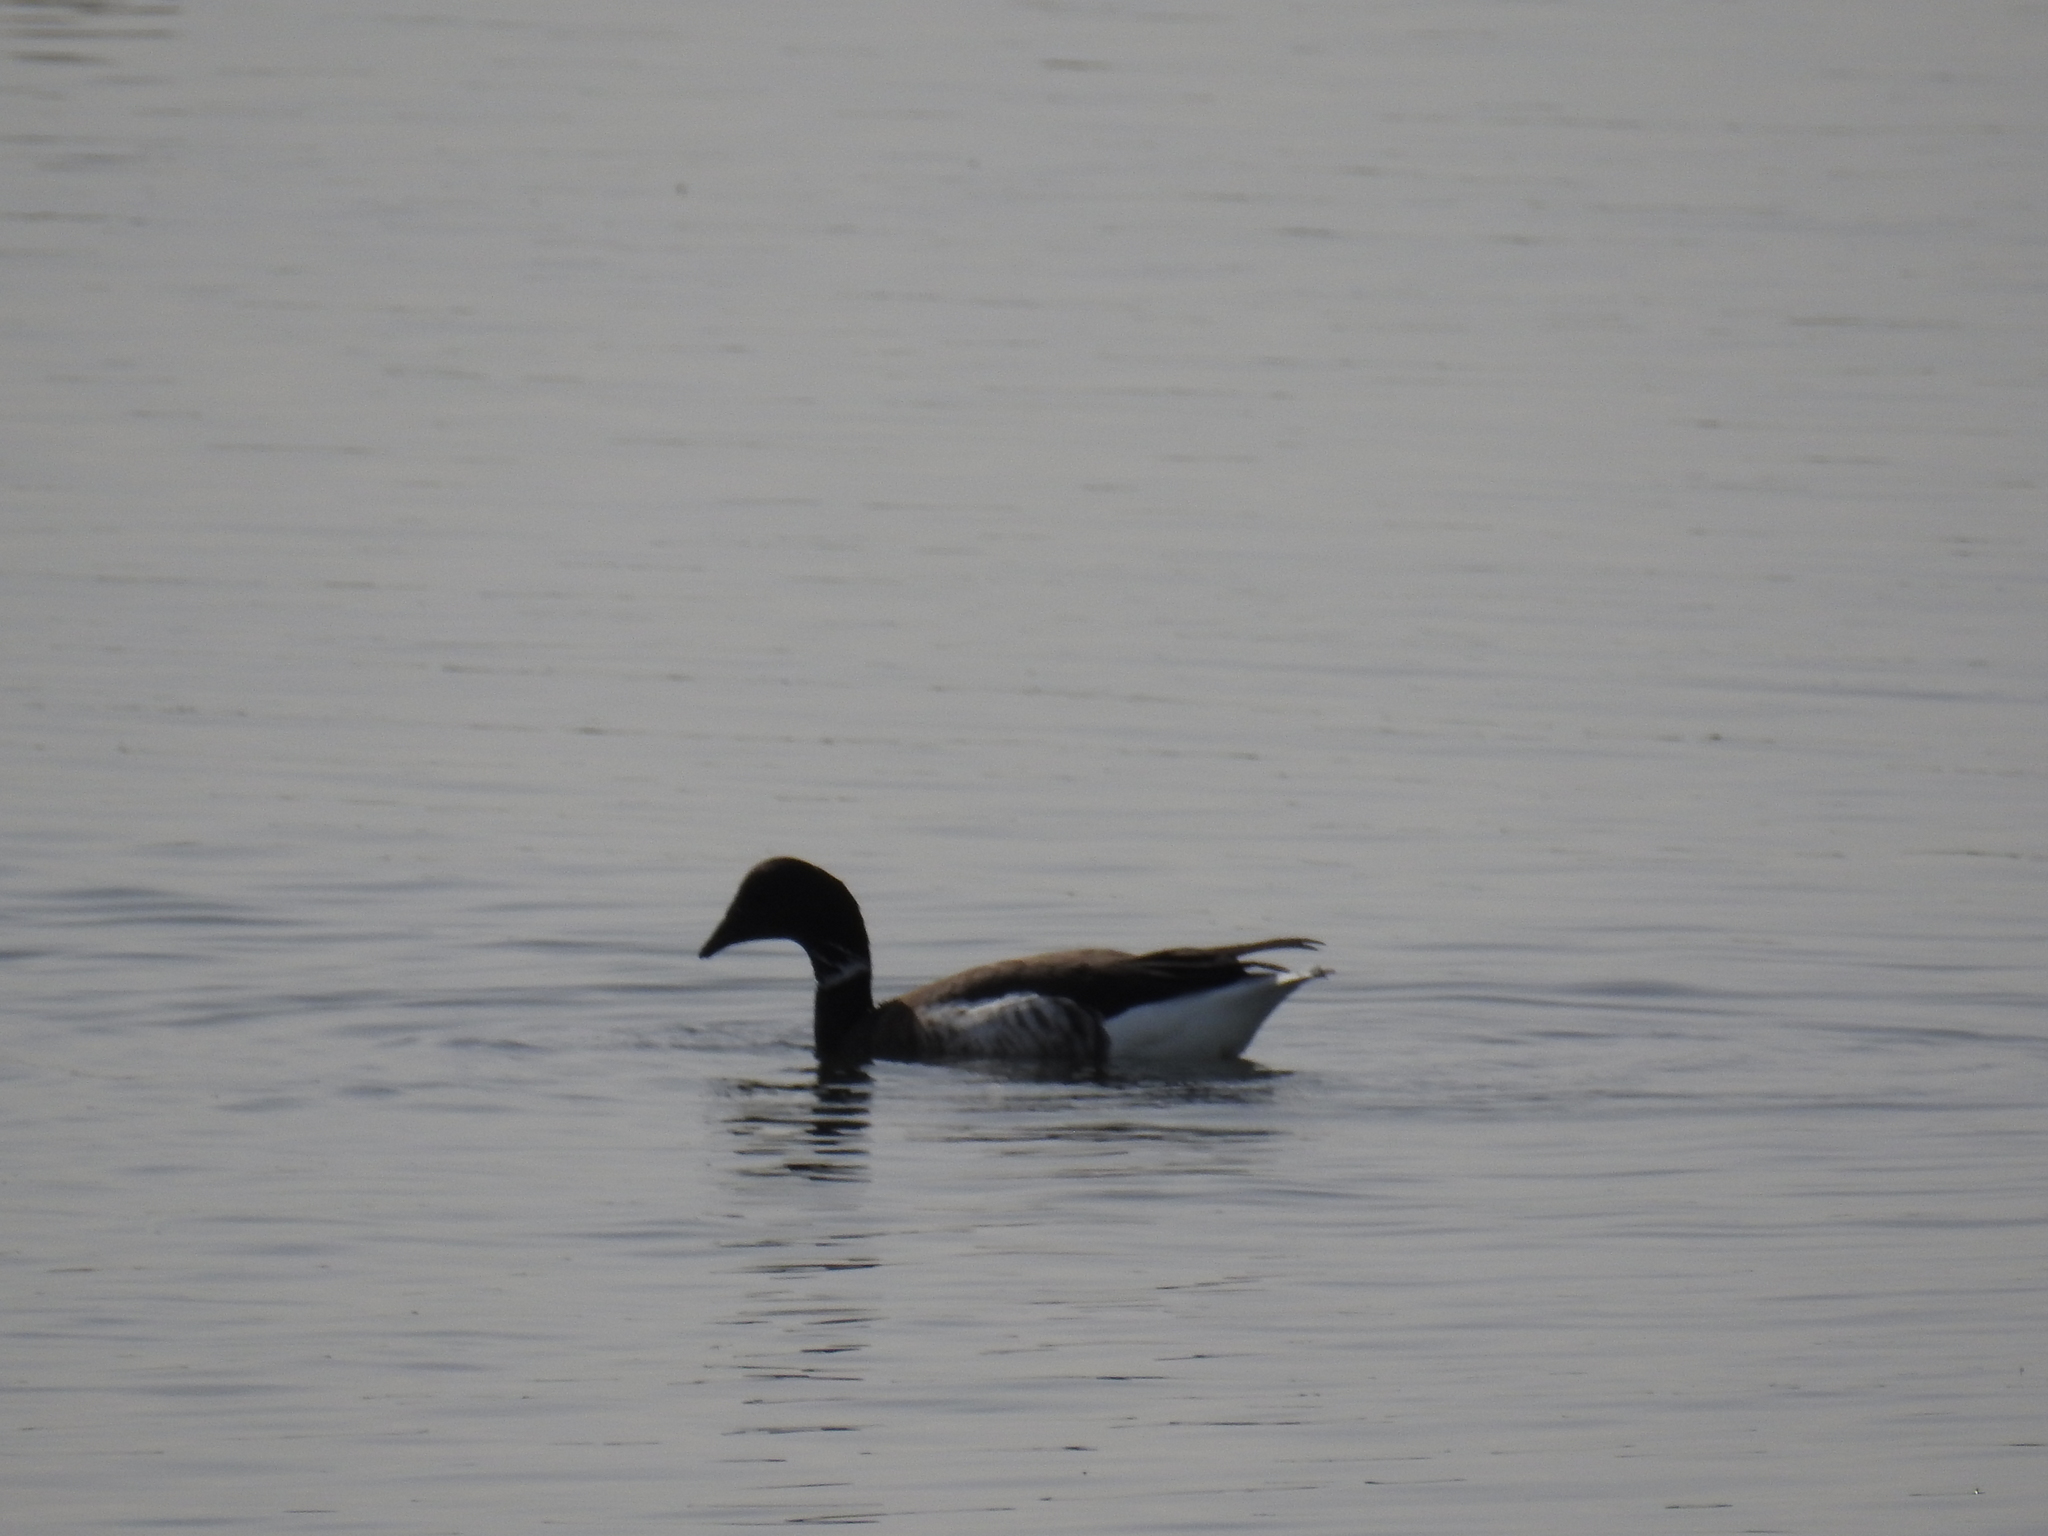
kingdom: Animalia
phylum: Chordata
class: Aves
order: Anseriformes
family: Anatidae
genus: Branta
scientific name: Branta bernicla
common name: Brant goose
